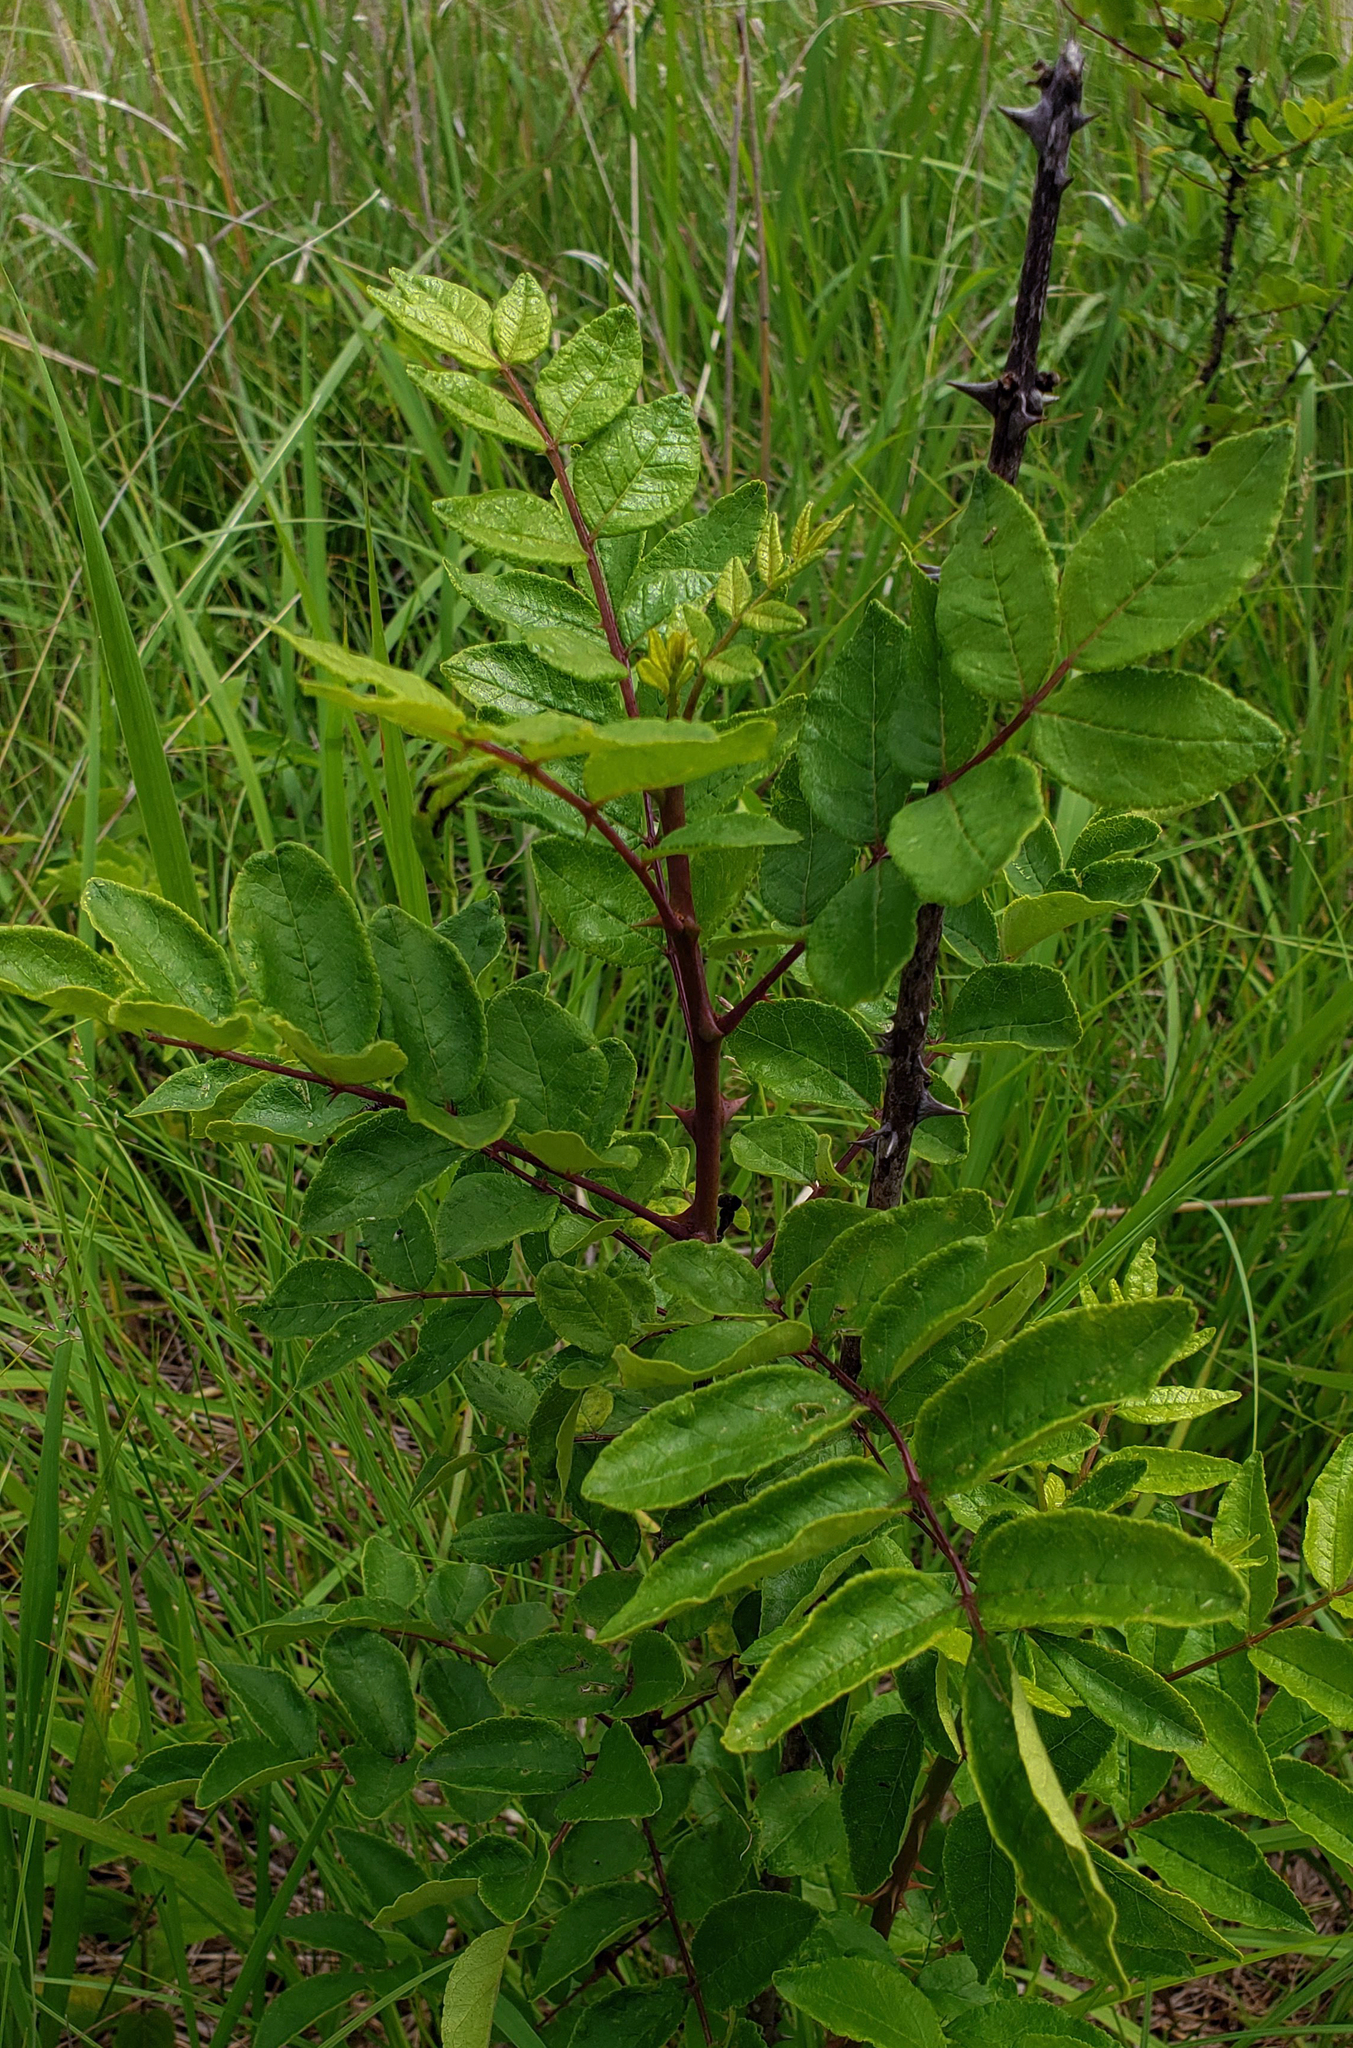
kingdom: Plantae
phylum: Tracheophyta
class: Magnoliopsida
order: Sapindales
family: Rutaceae
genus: Zanthoxylum
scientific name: Zanthoxylum americanum
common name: Northern prickly-ash
